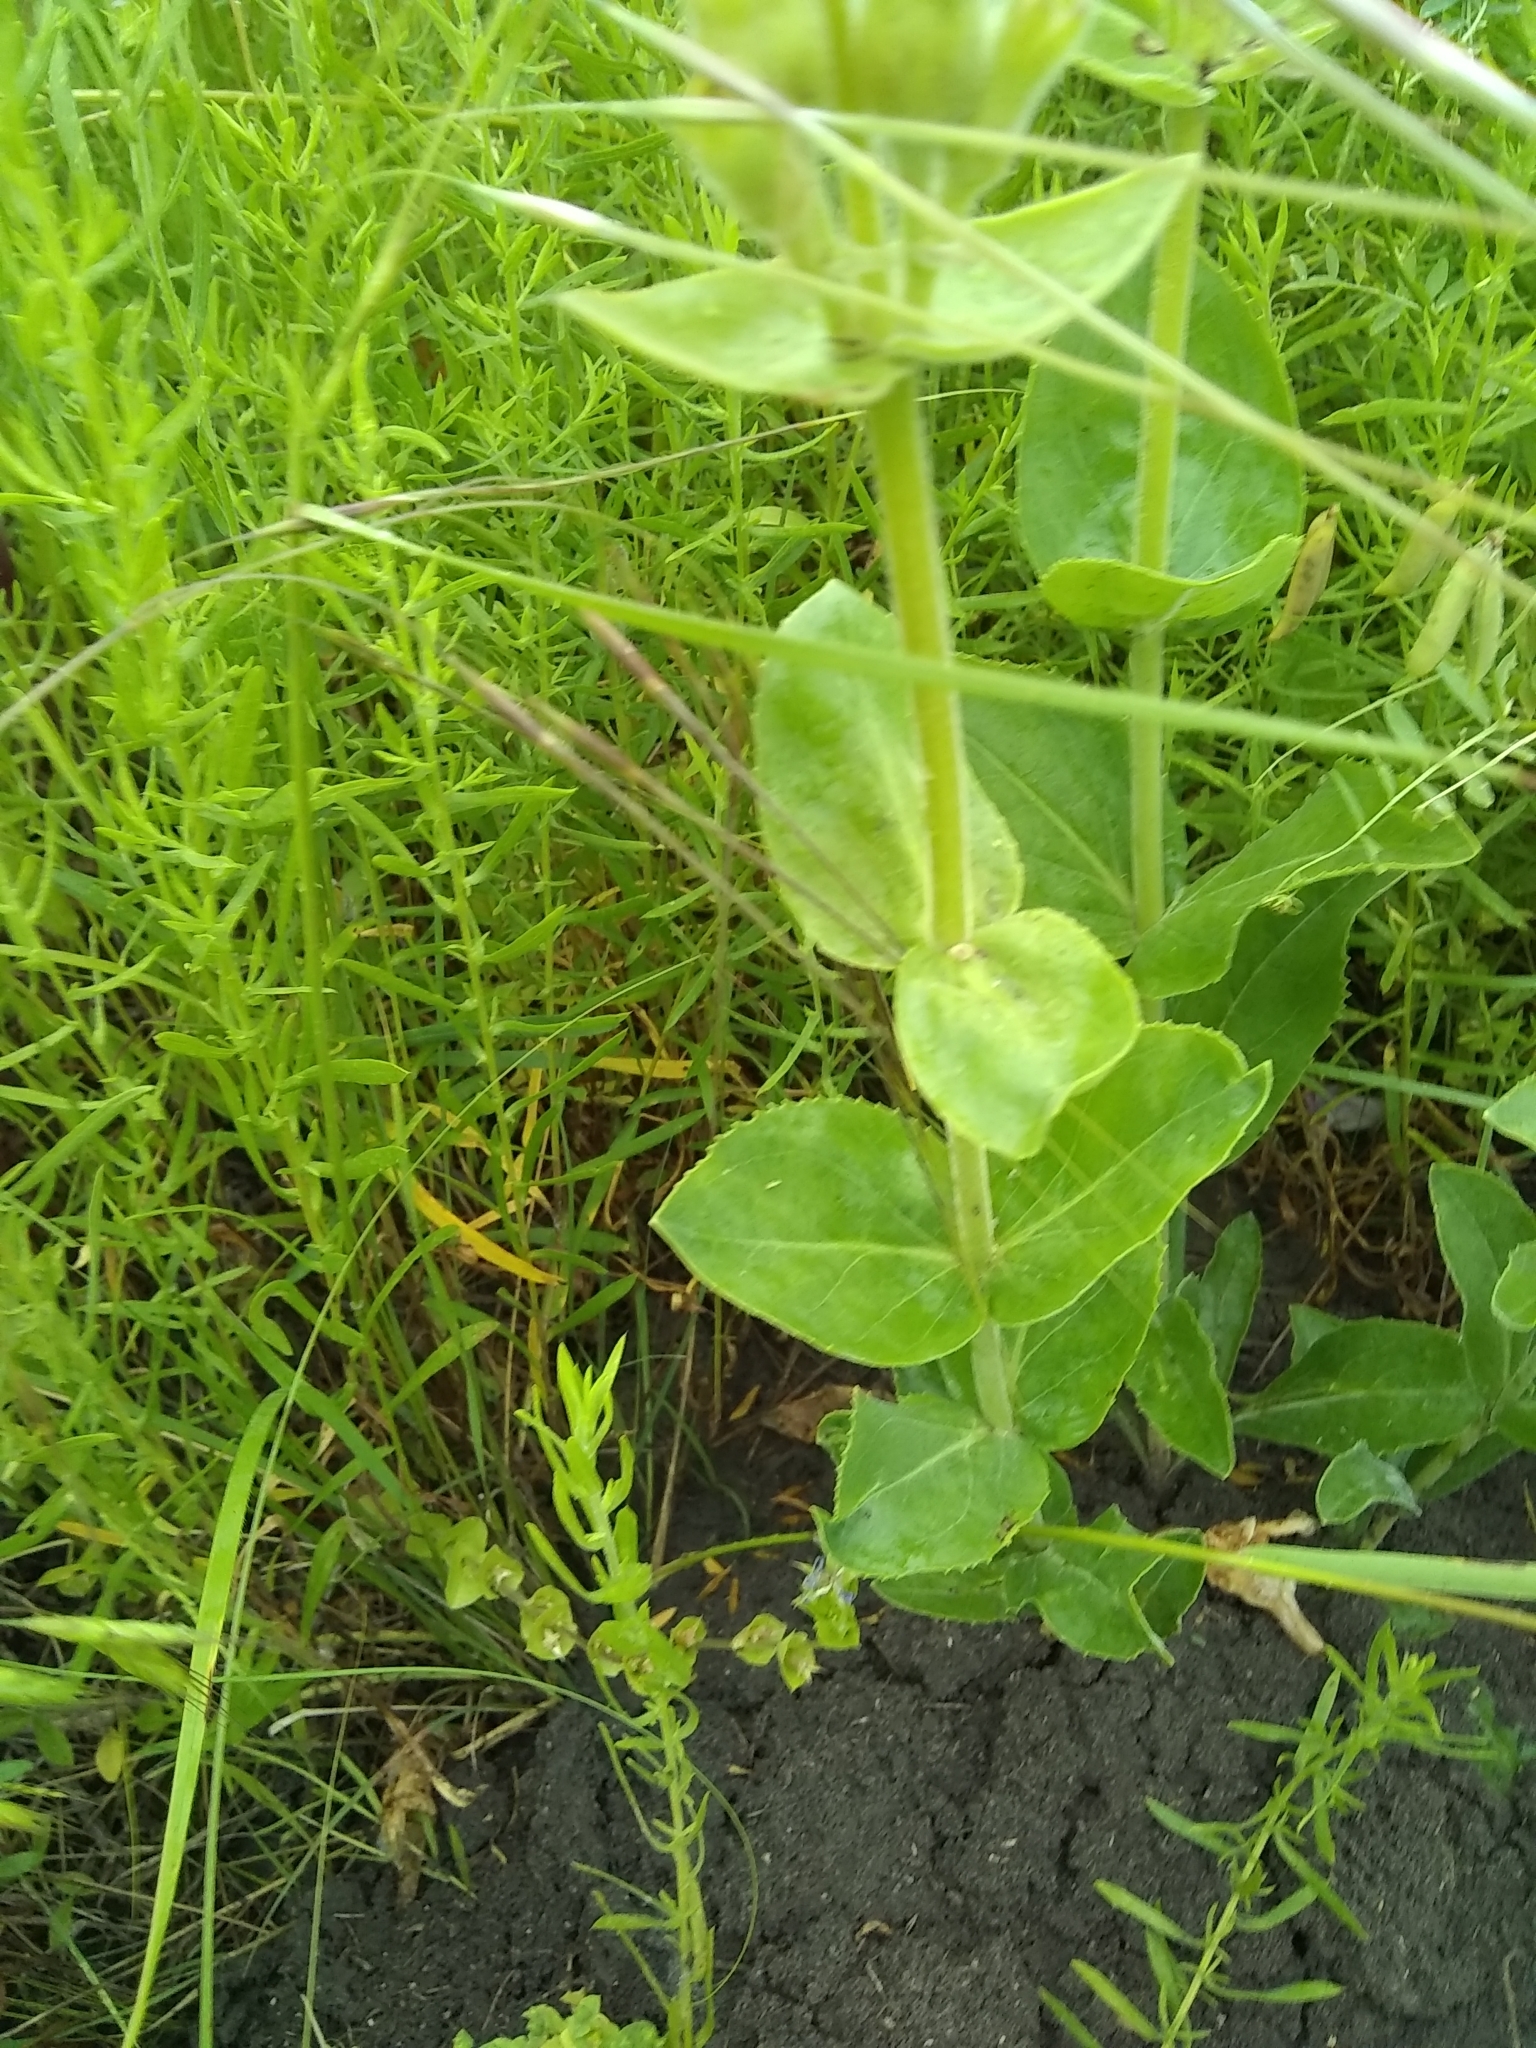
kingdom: Plantae
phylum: Tracheophyta
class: Magnoliopsida
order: Lamiales
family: Plantaginaceae
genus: Penstemon
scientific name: Penstemon cobaea
